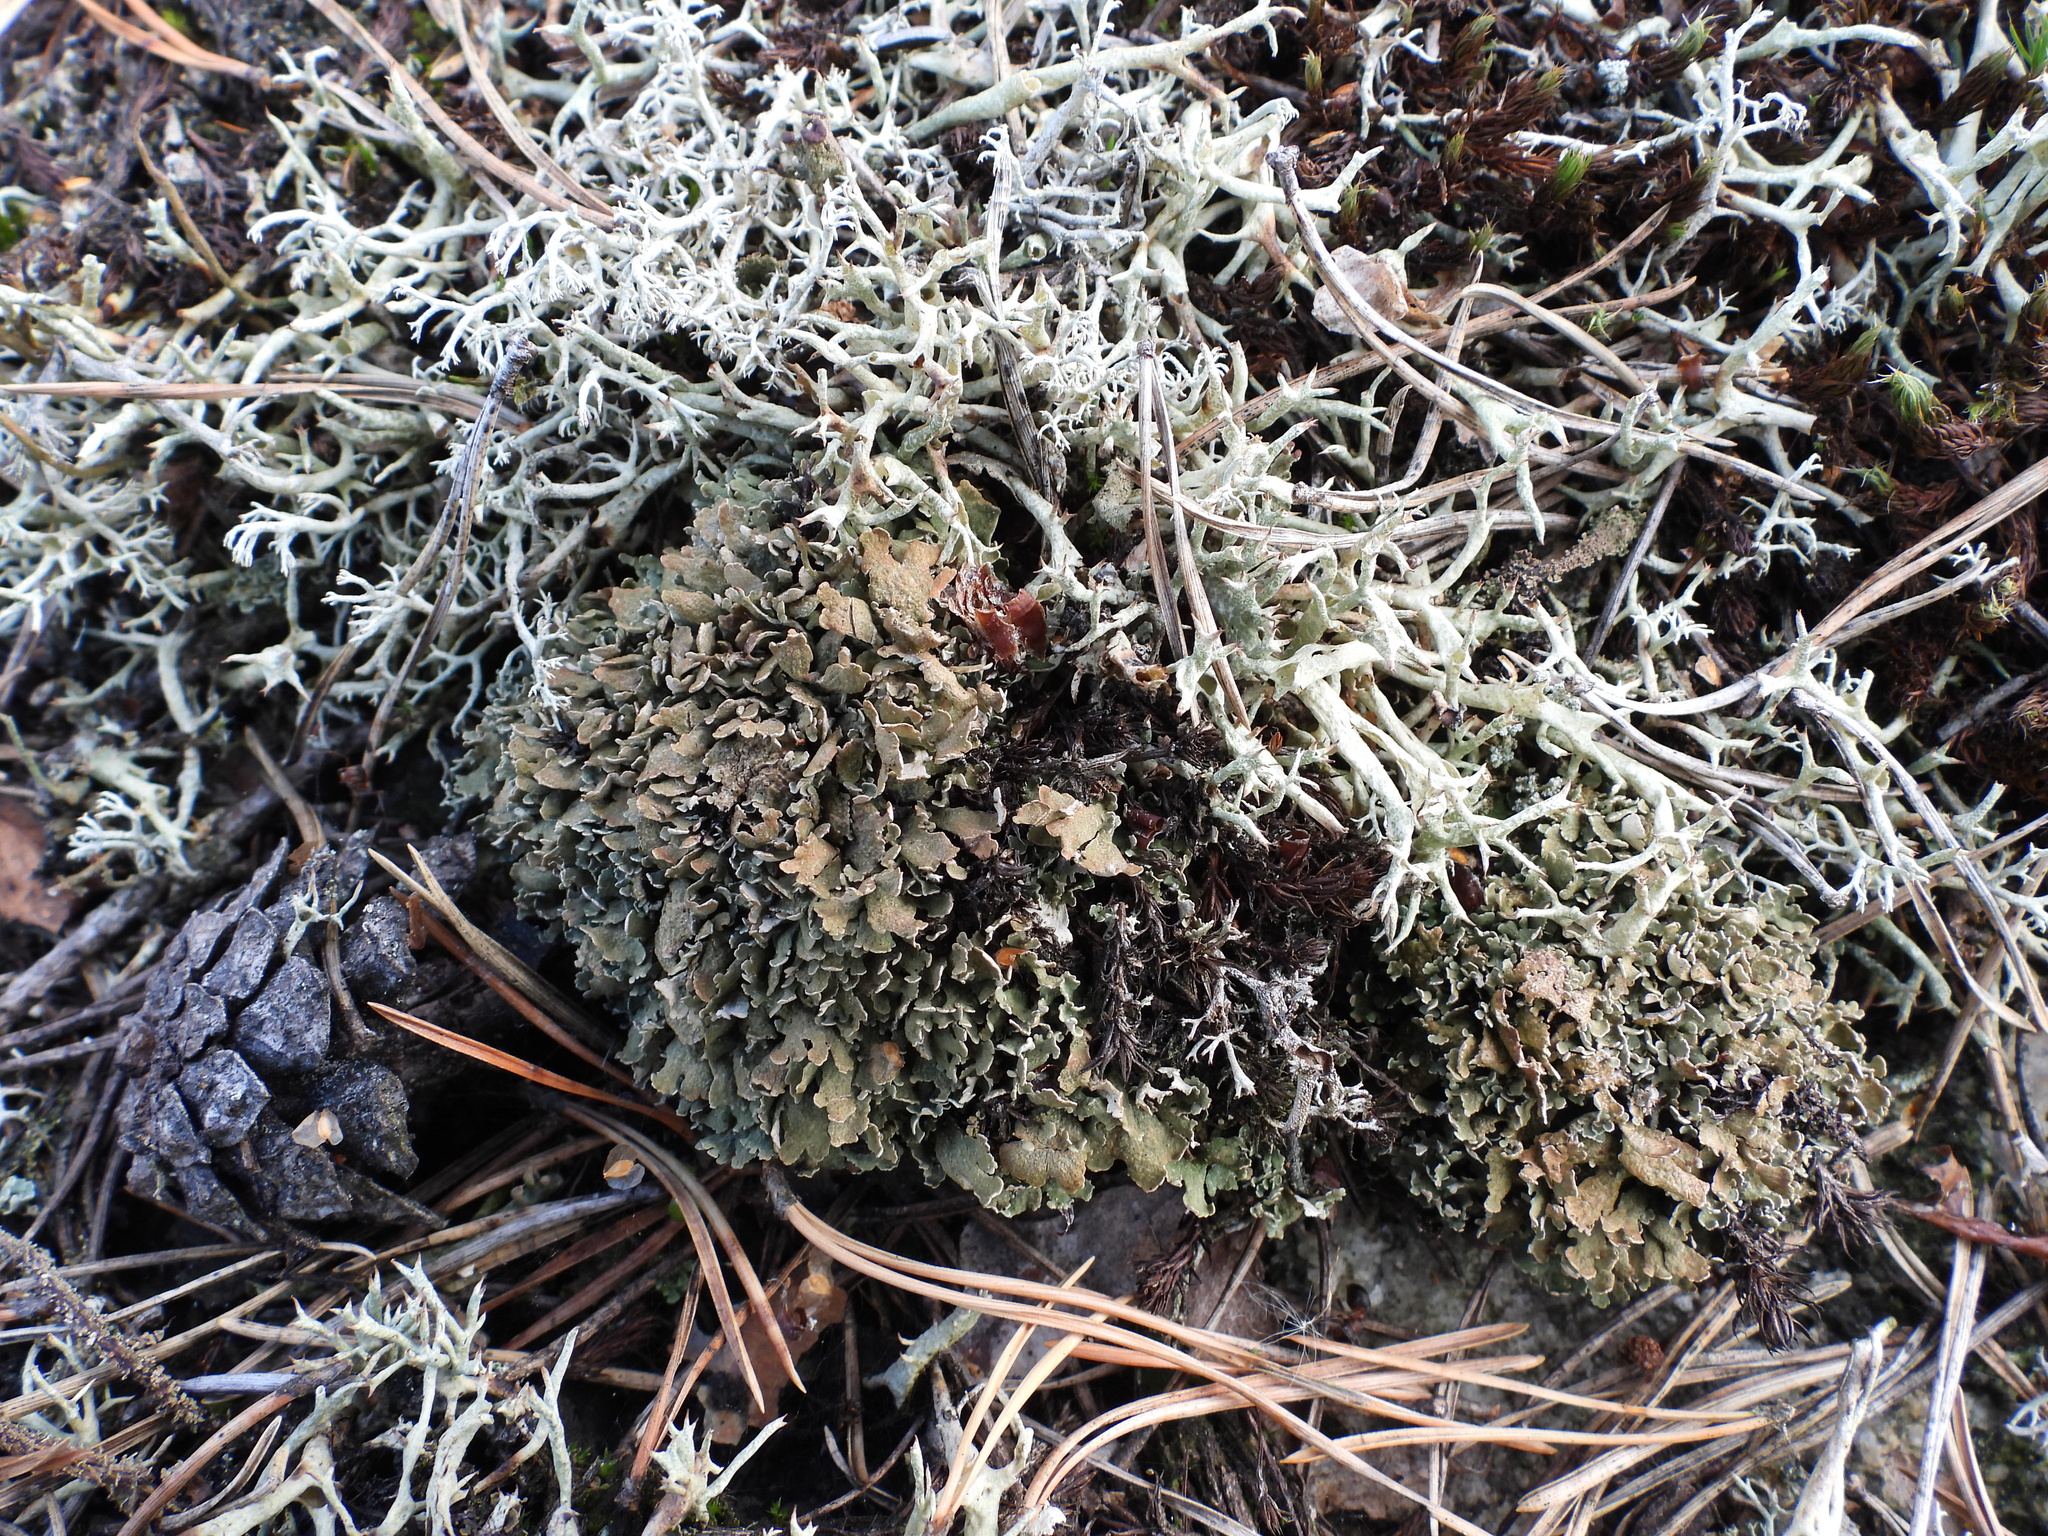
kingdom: Fungi
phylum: Ascomycota
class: Lecanoromycetes
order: Lecanorales
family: Cladoniaceae
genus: Cladonia
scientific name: Cladonia strepsilis
